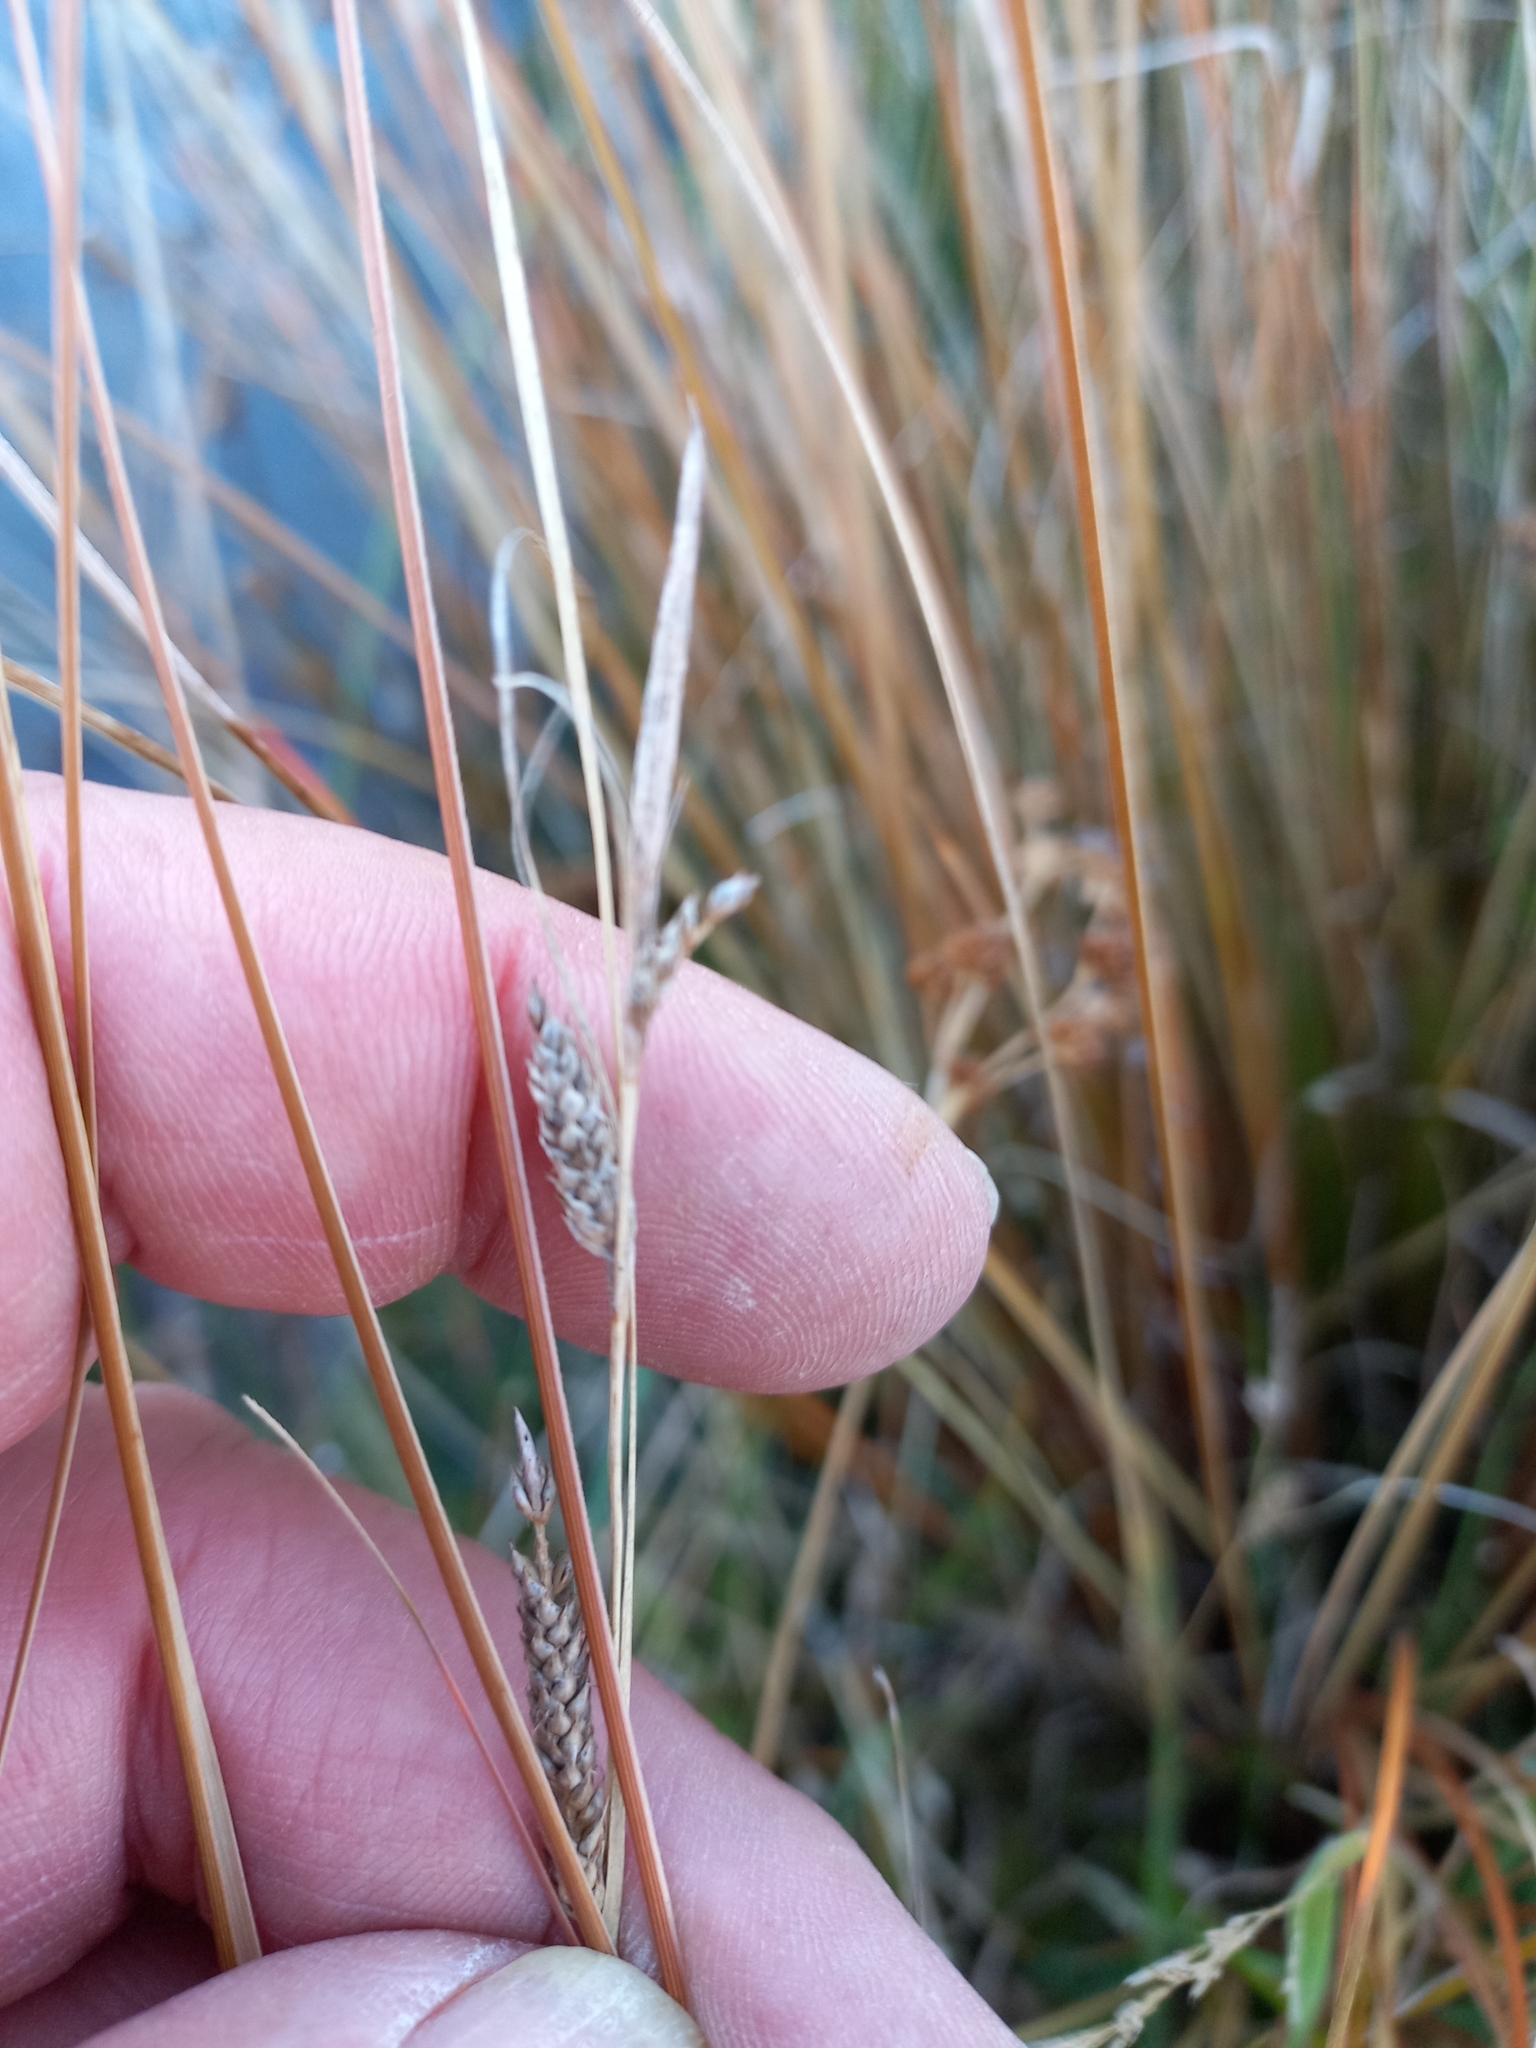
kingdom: Plantae
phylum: Tracheophyta
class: Liliopsida
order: Poales
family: Cyperaceae
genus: Carex
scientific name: Carex buchananii
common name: Leatherleaf sedge
